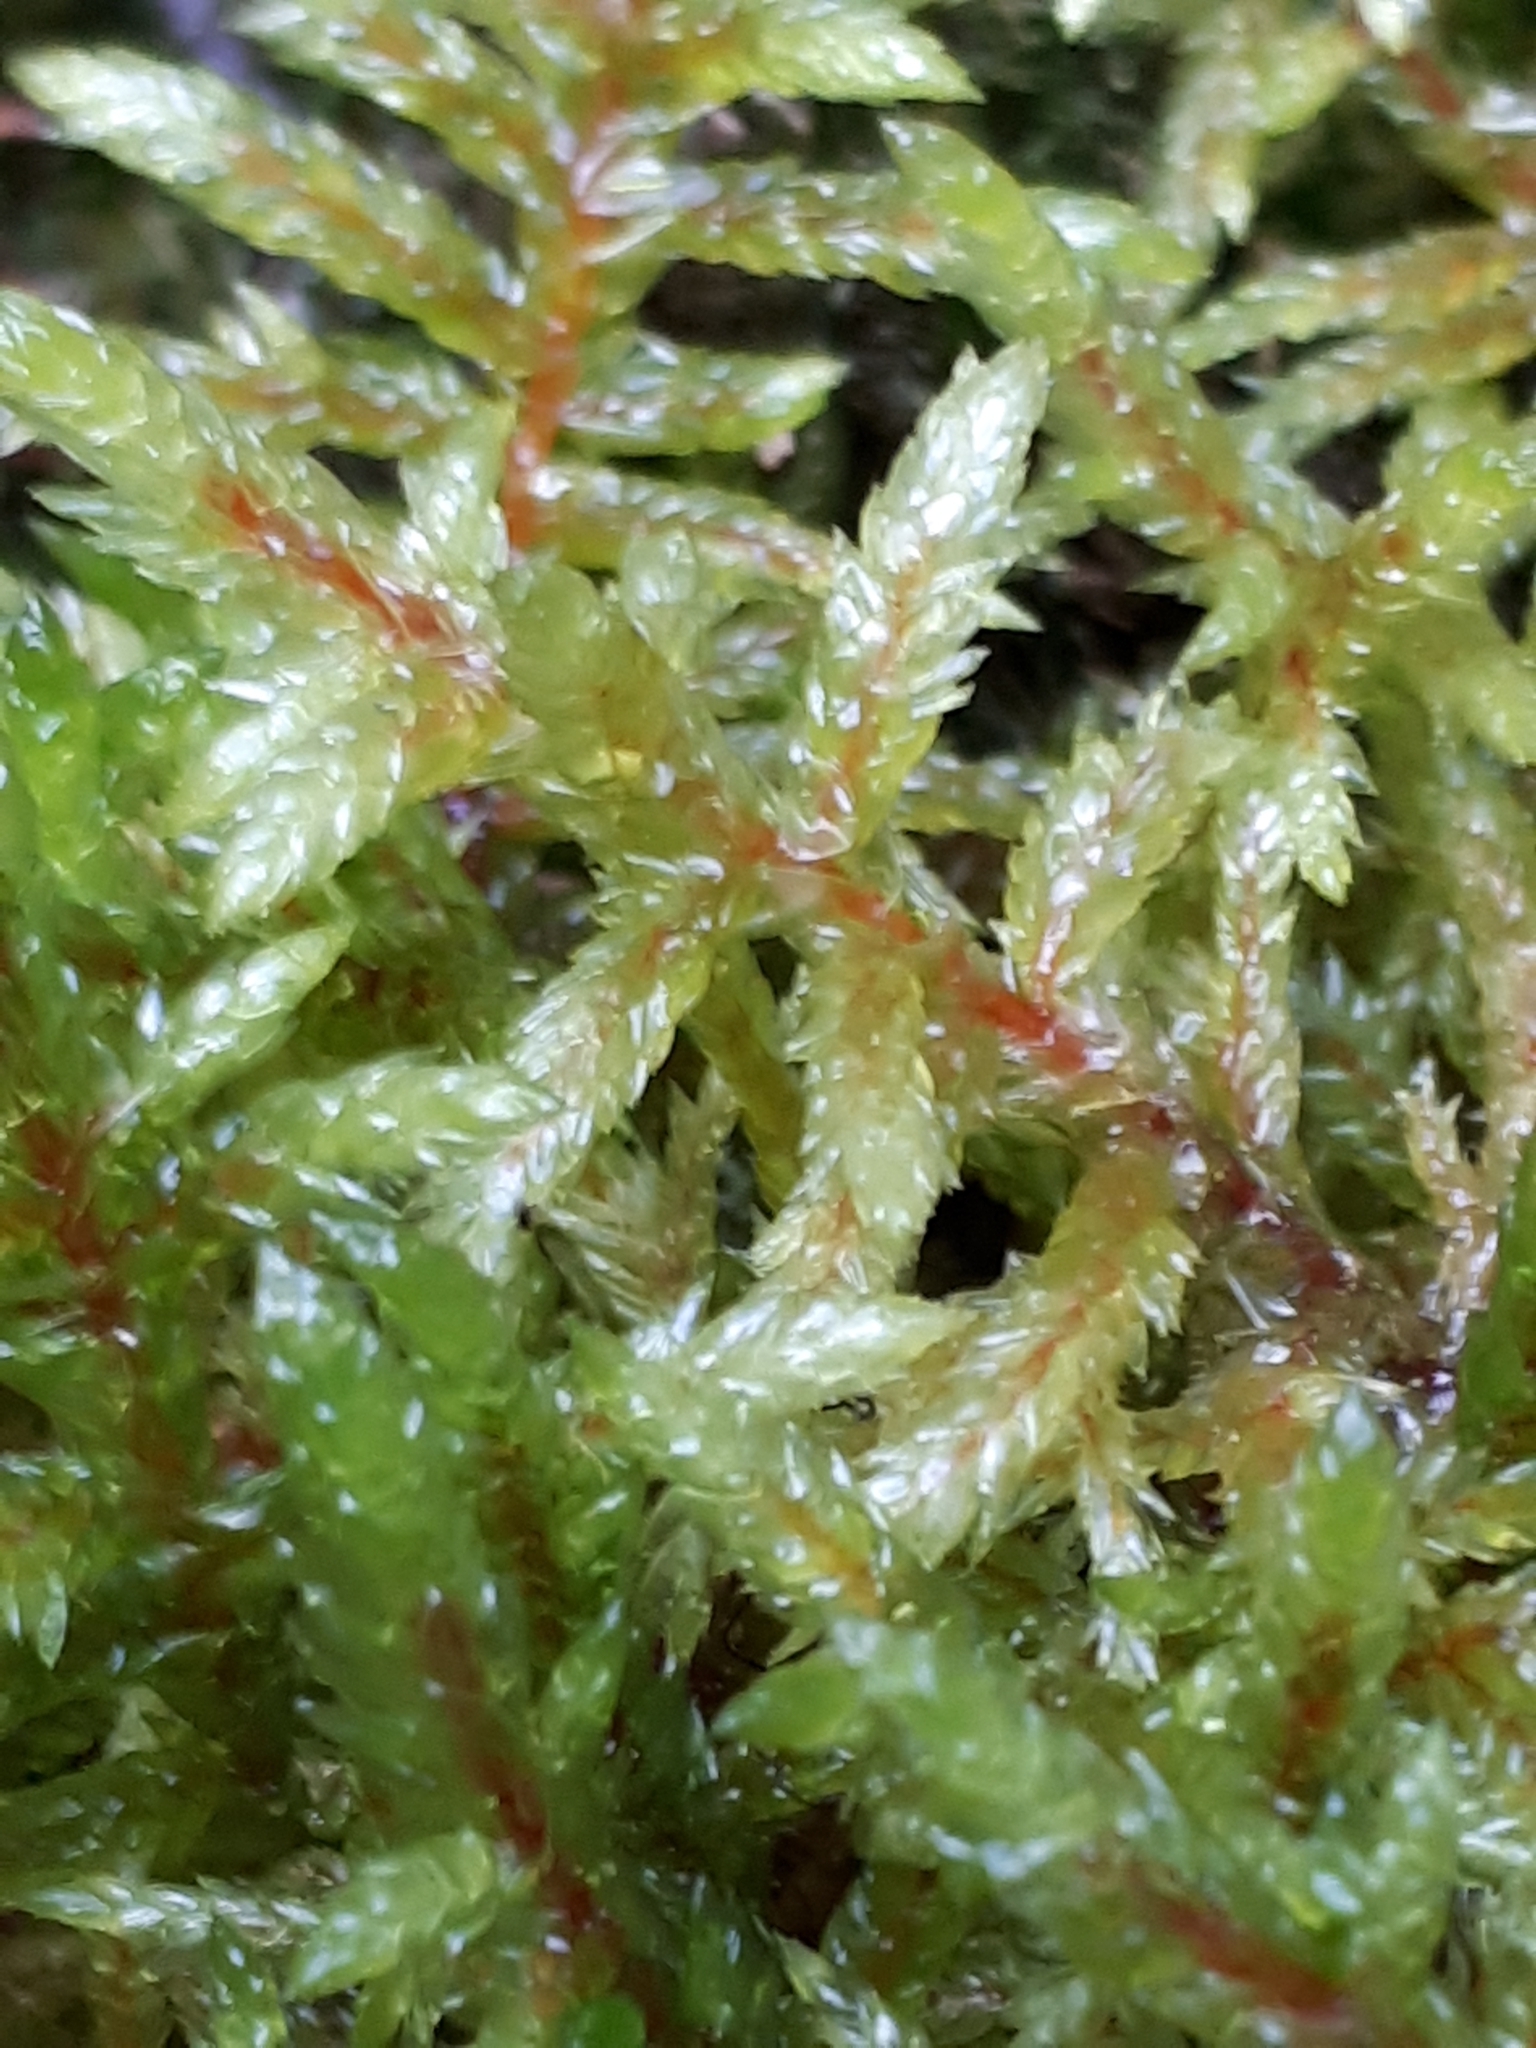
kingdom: Plantae
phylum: Bryophyta
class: Bryopsida
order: Hypnales
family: Hylocomiaceae
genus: Pleurozium
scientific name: Pleurozium schreberi
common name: Red-stemmed feather moss
